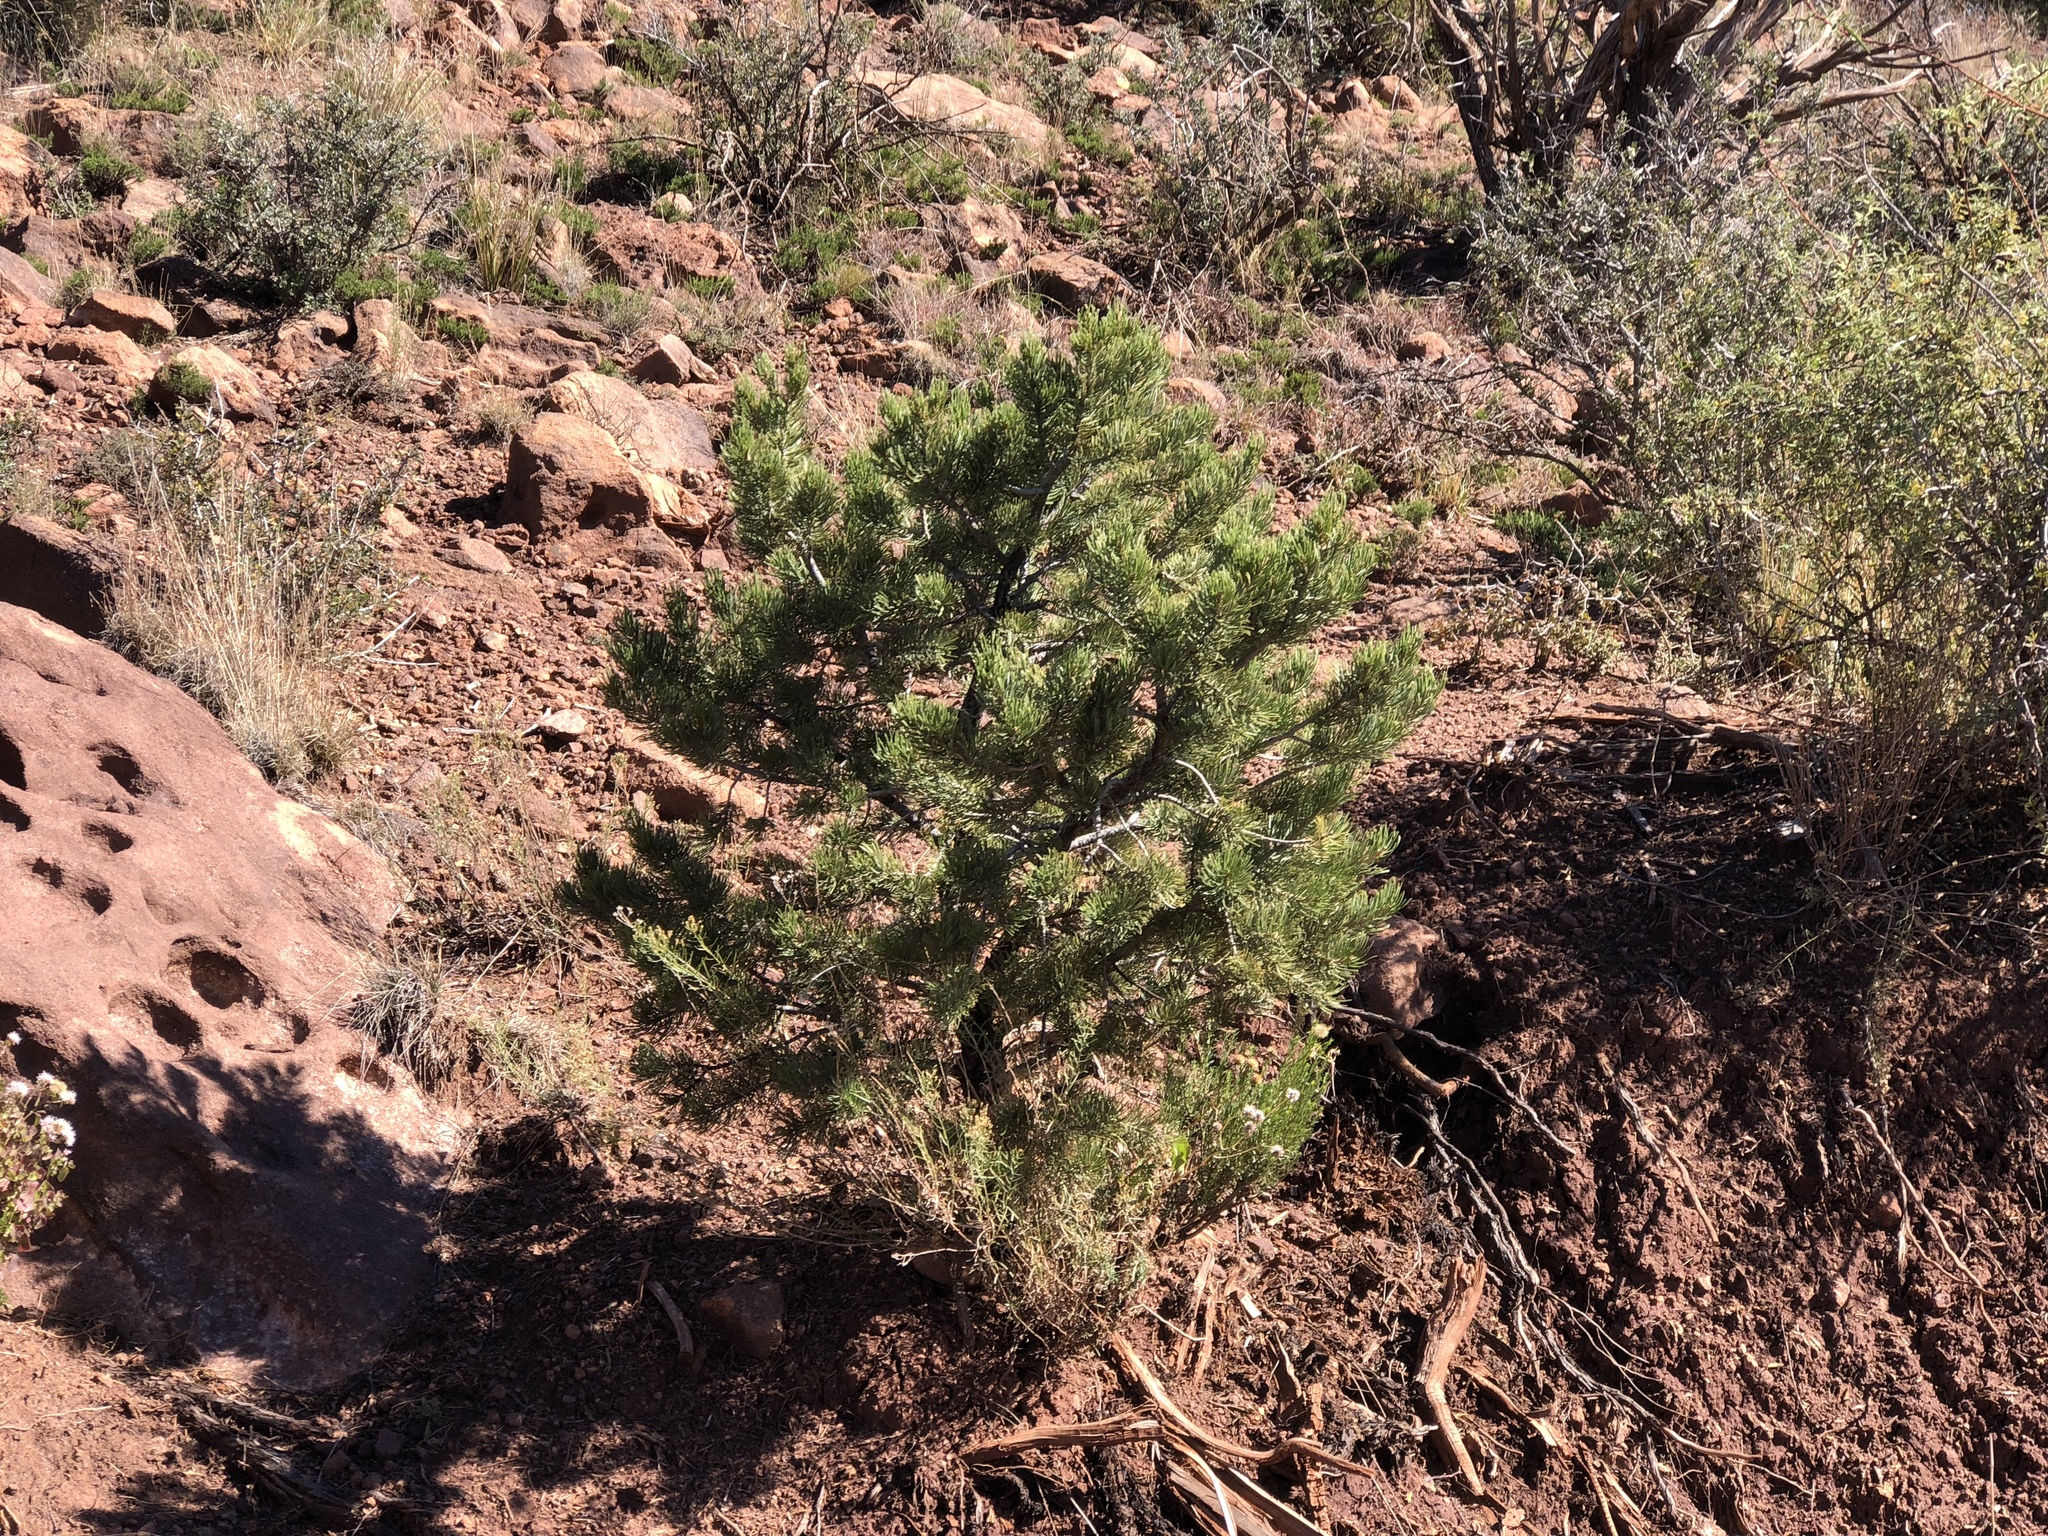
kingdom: Plantae
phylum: Tracheophyta
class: Pinopsida
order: Pinales
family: Pinaceae
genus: Pinus
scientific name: Pinus edulis
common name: Colorado pinyon
